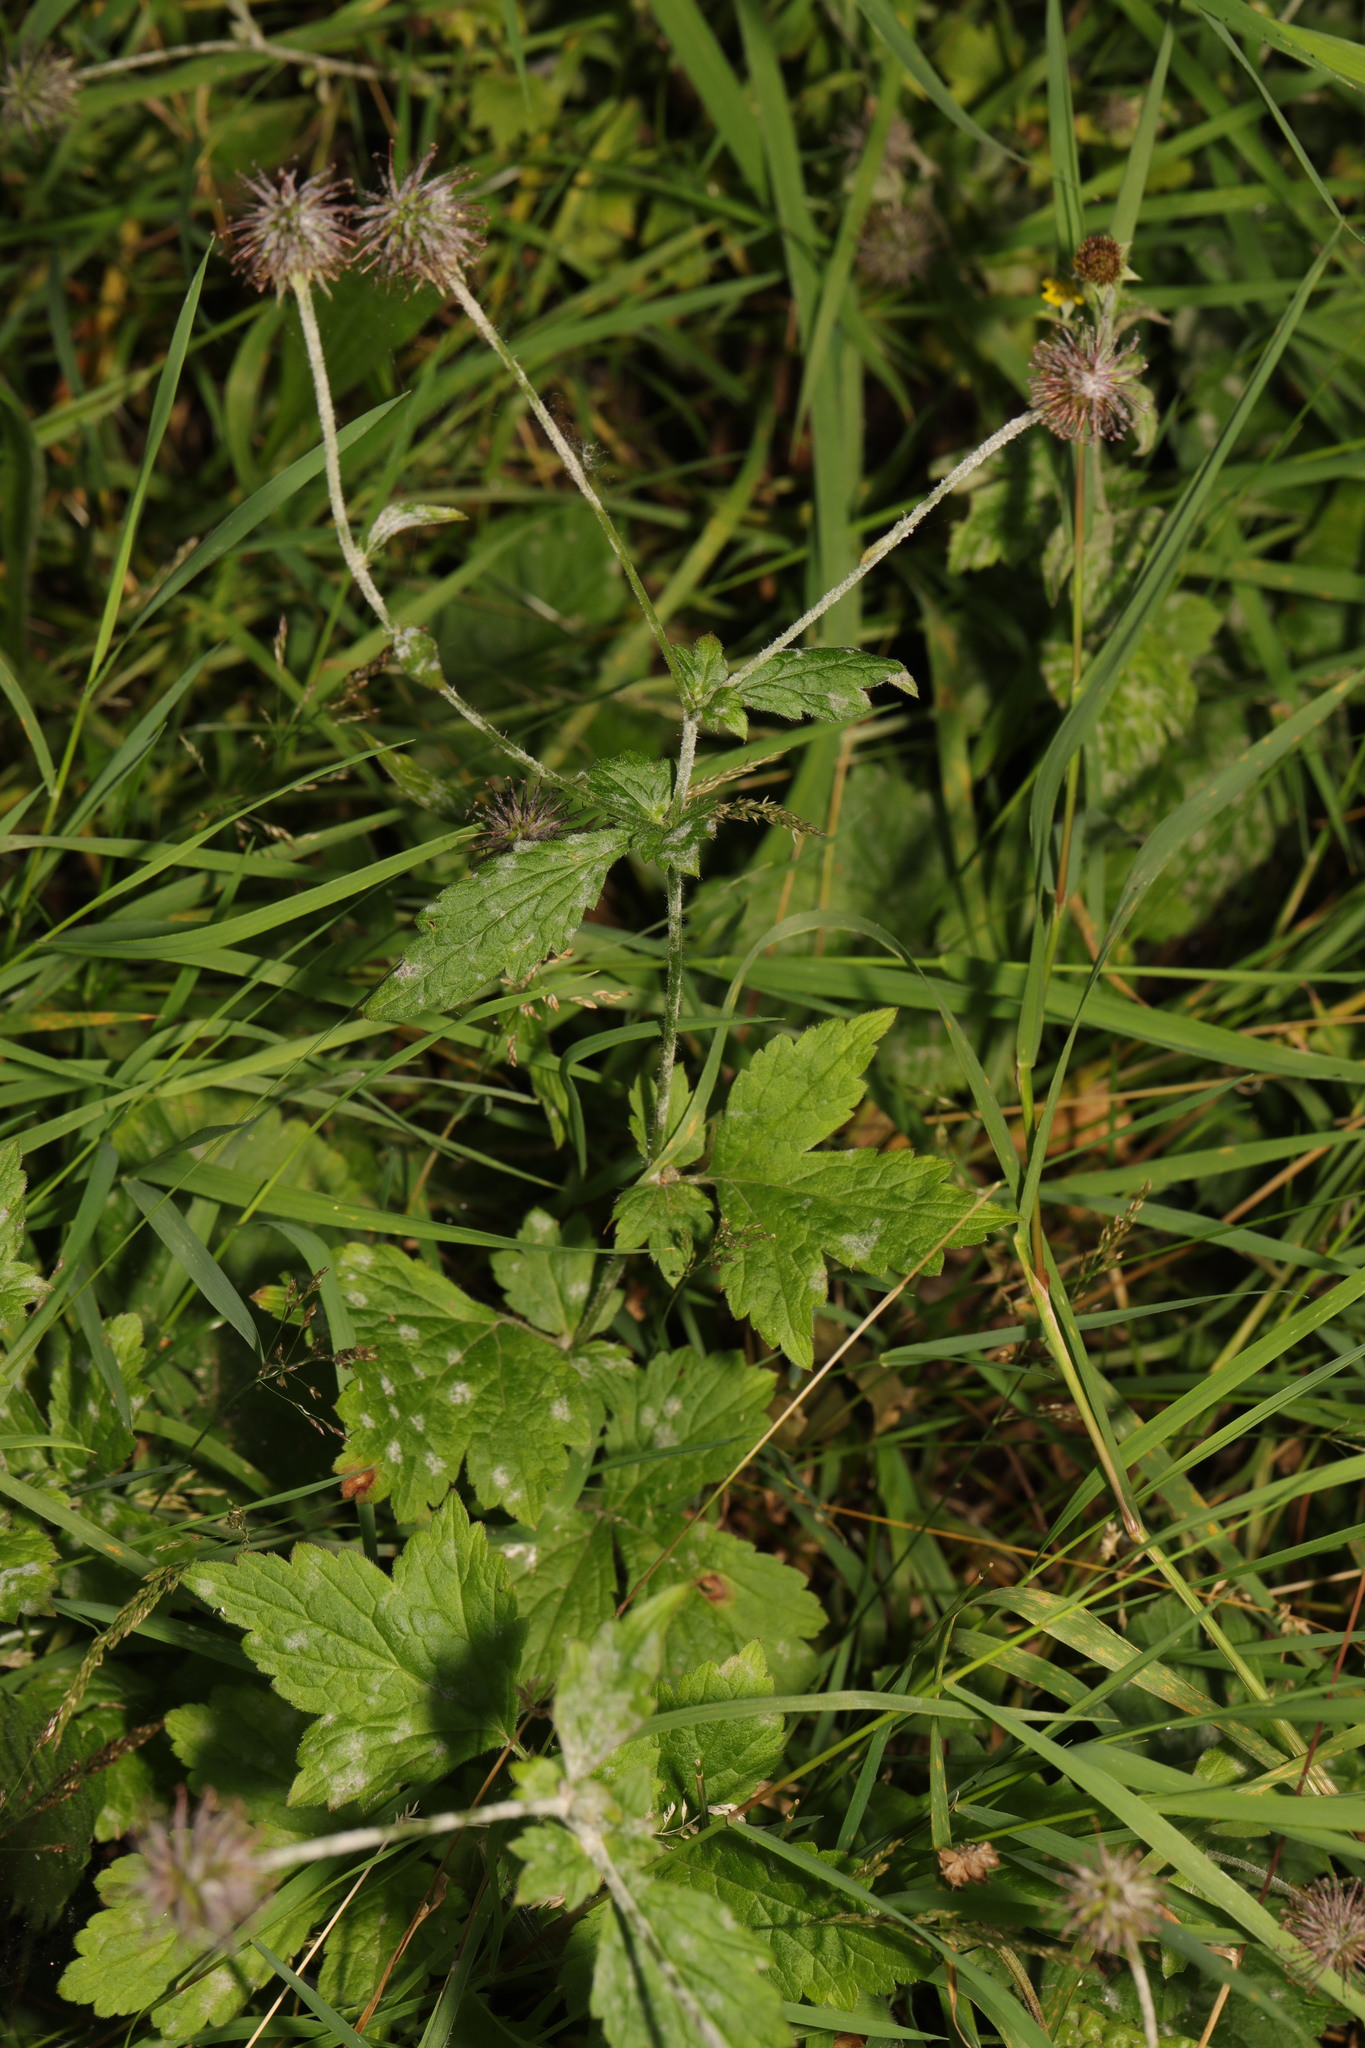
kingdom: Plantae
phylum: Tracheophyta
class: Magnoliopsida
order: Rosales
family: Rosaceae
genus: Geum
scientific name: Geum urbanum
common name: Wood avens
